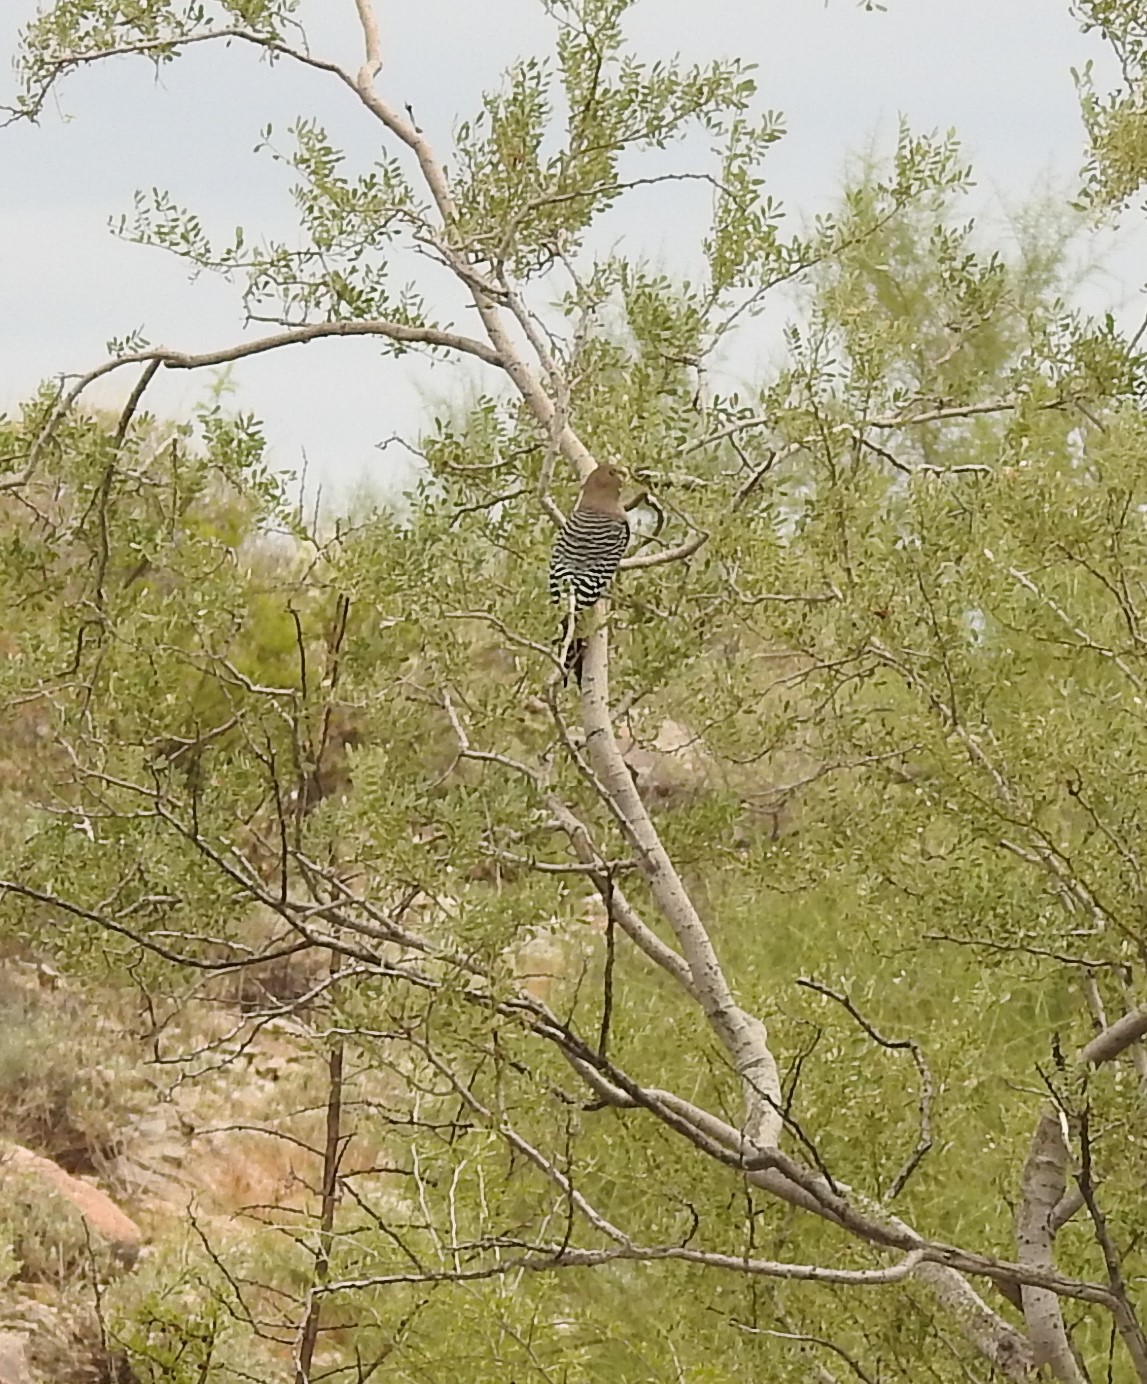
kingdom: Animalia
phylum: Chordata
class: Aves
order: Piciformes
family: Picidae
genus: Melanerpes
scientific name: Melanerpes uropygialis
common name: Gila woodpecker
